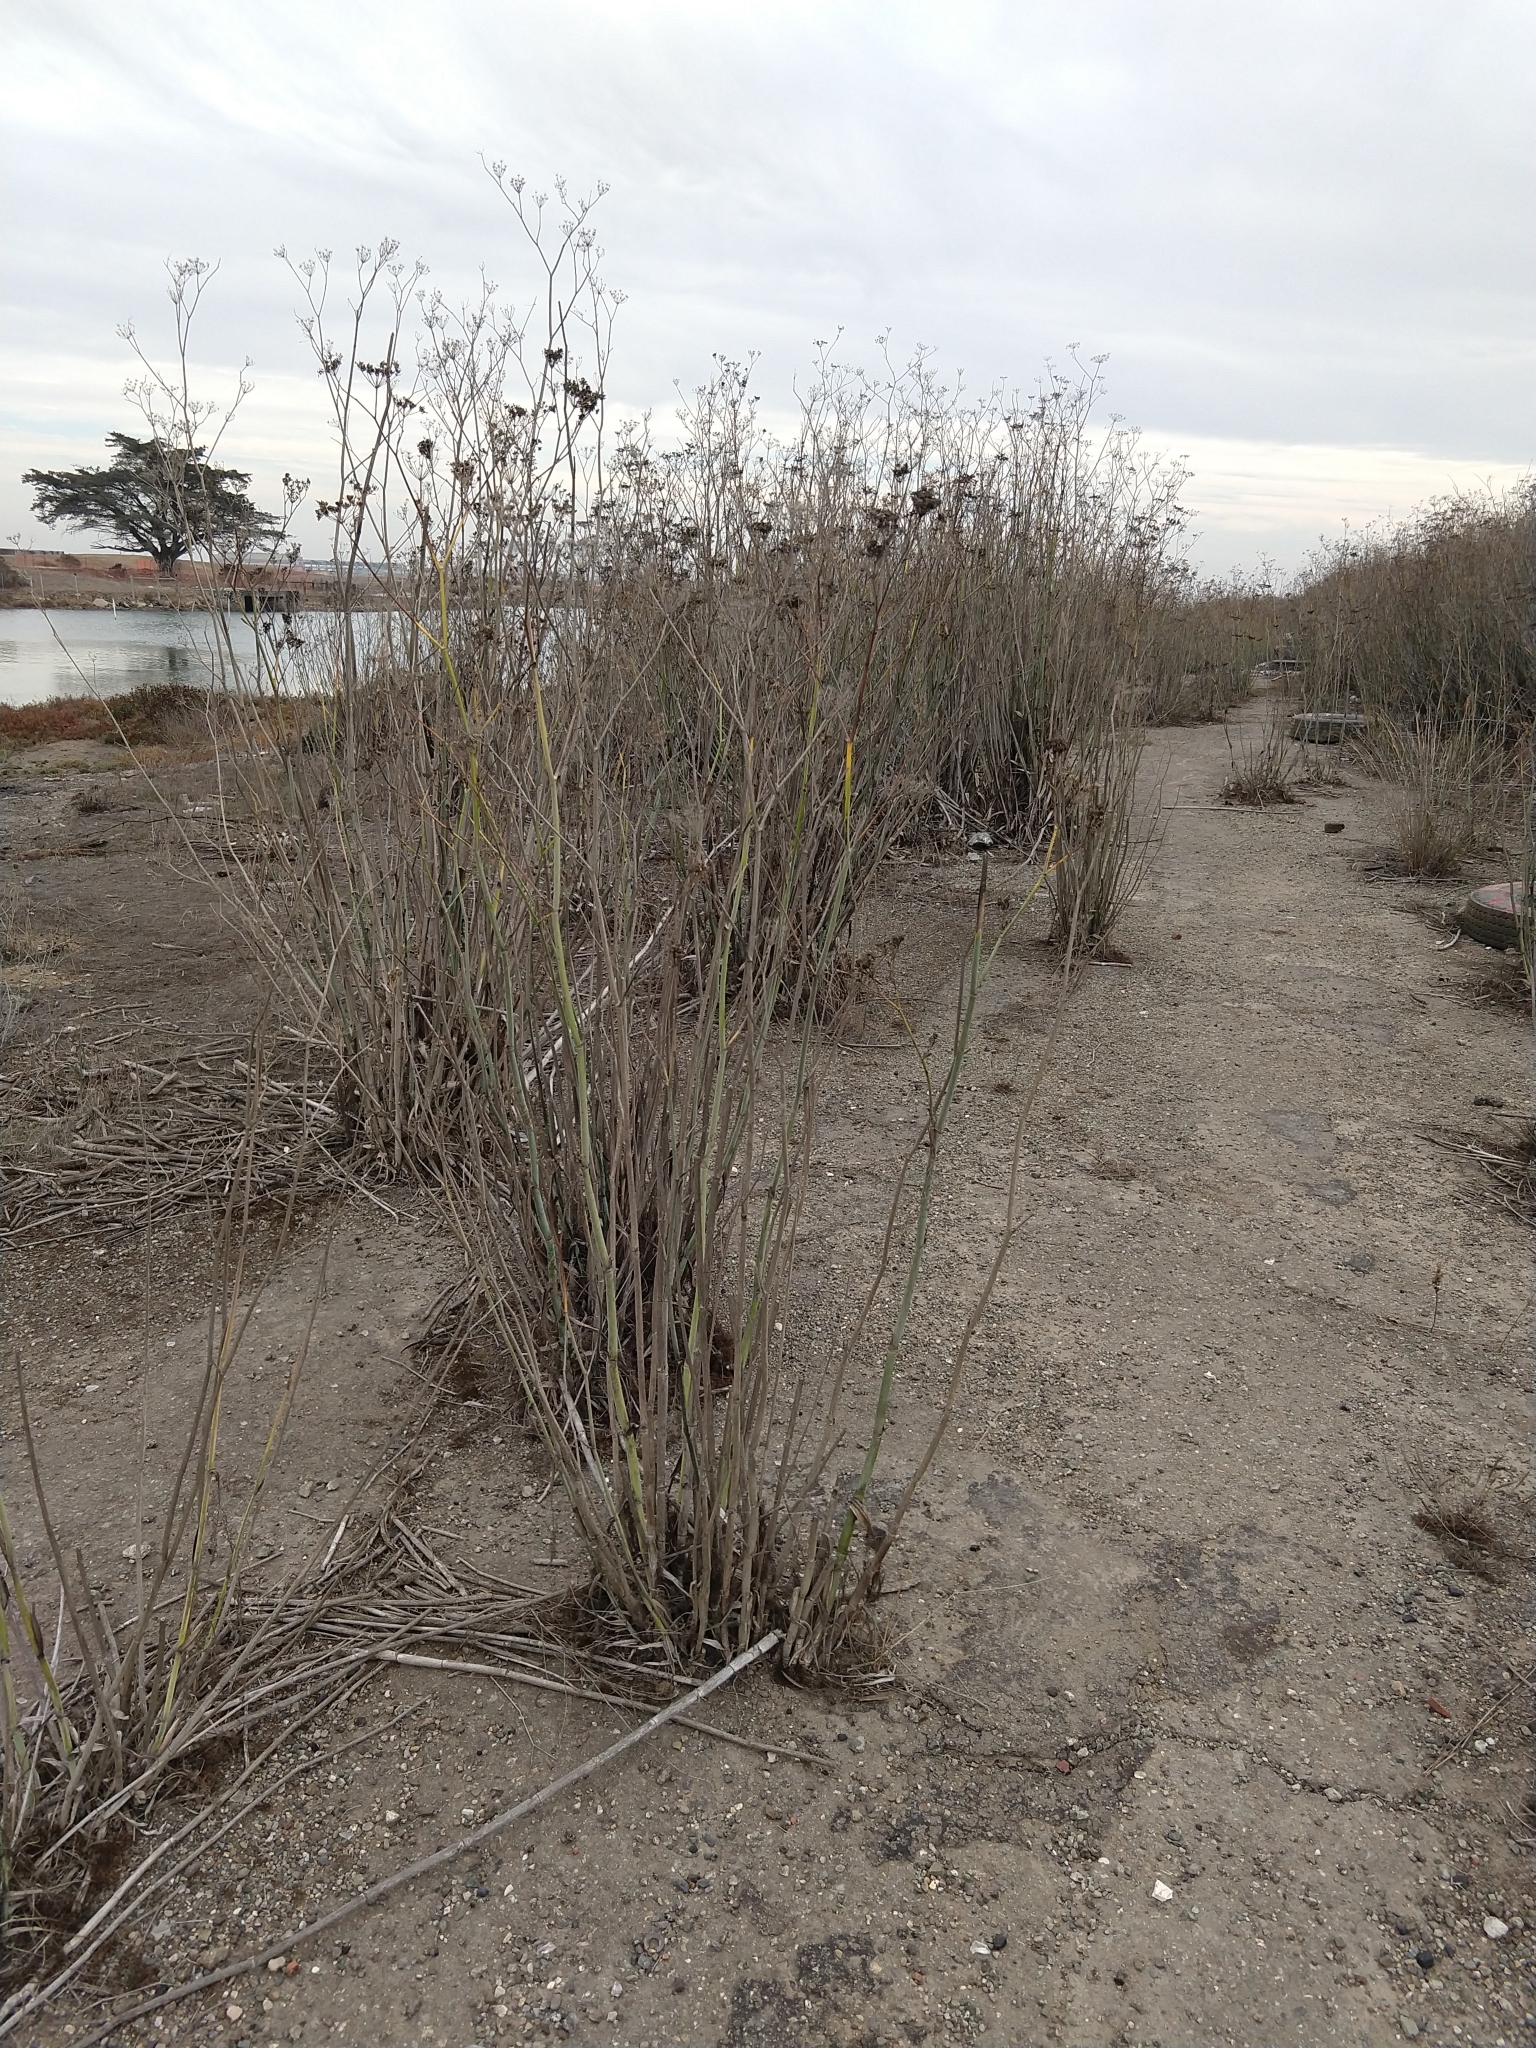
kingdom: Plantae
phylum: Tracheophyta
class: Magnoliopsida
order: Apiales
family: Apiaceae
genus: Foeniculum
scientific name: Foeniculum vulgare
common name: Fennel
